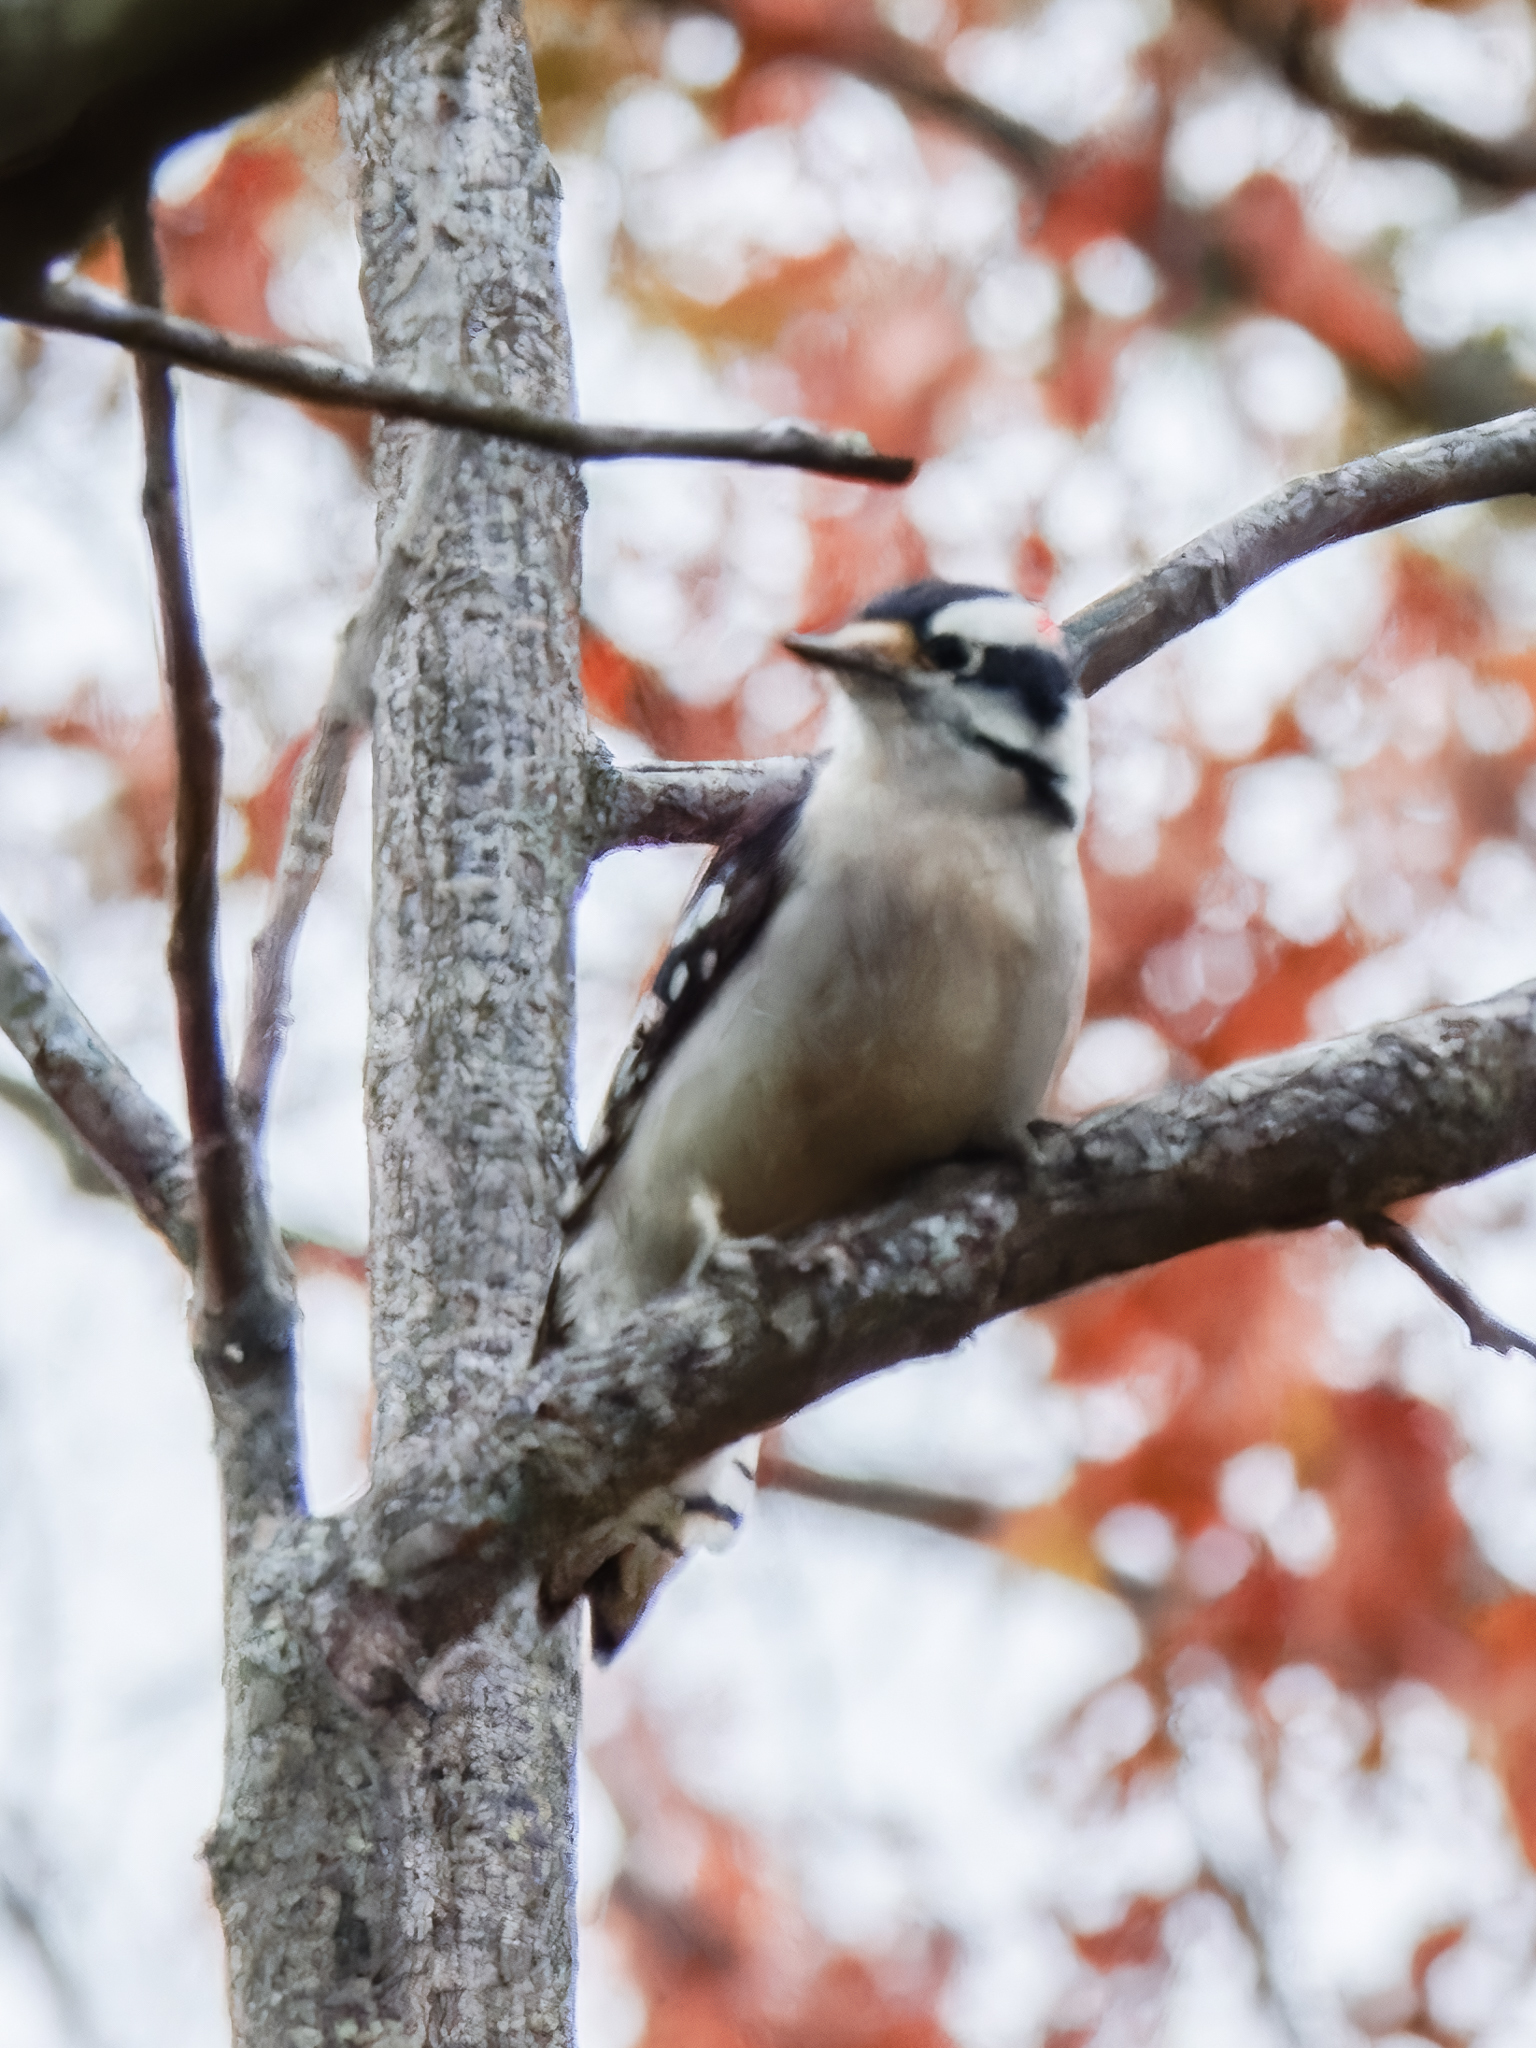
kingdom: Animalia
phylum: Chordata
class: Aves
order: Piciformes
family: Picidae
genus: Dryobates
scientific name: Dryobates pubescens
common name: Downy woodpecker
